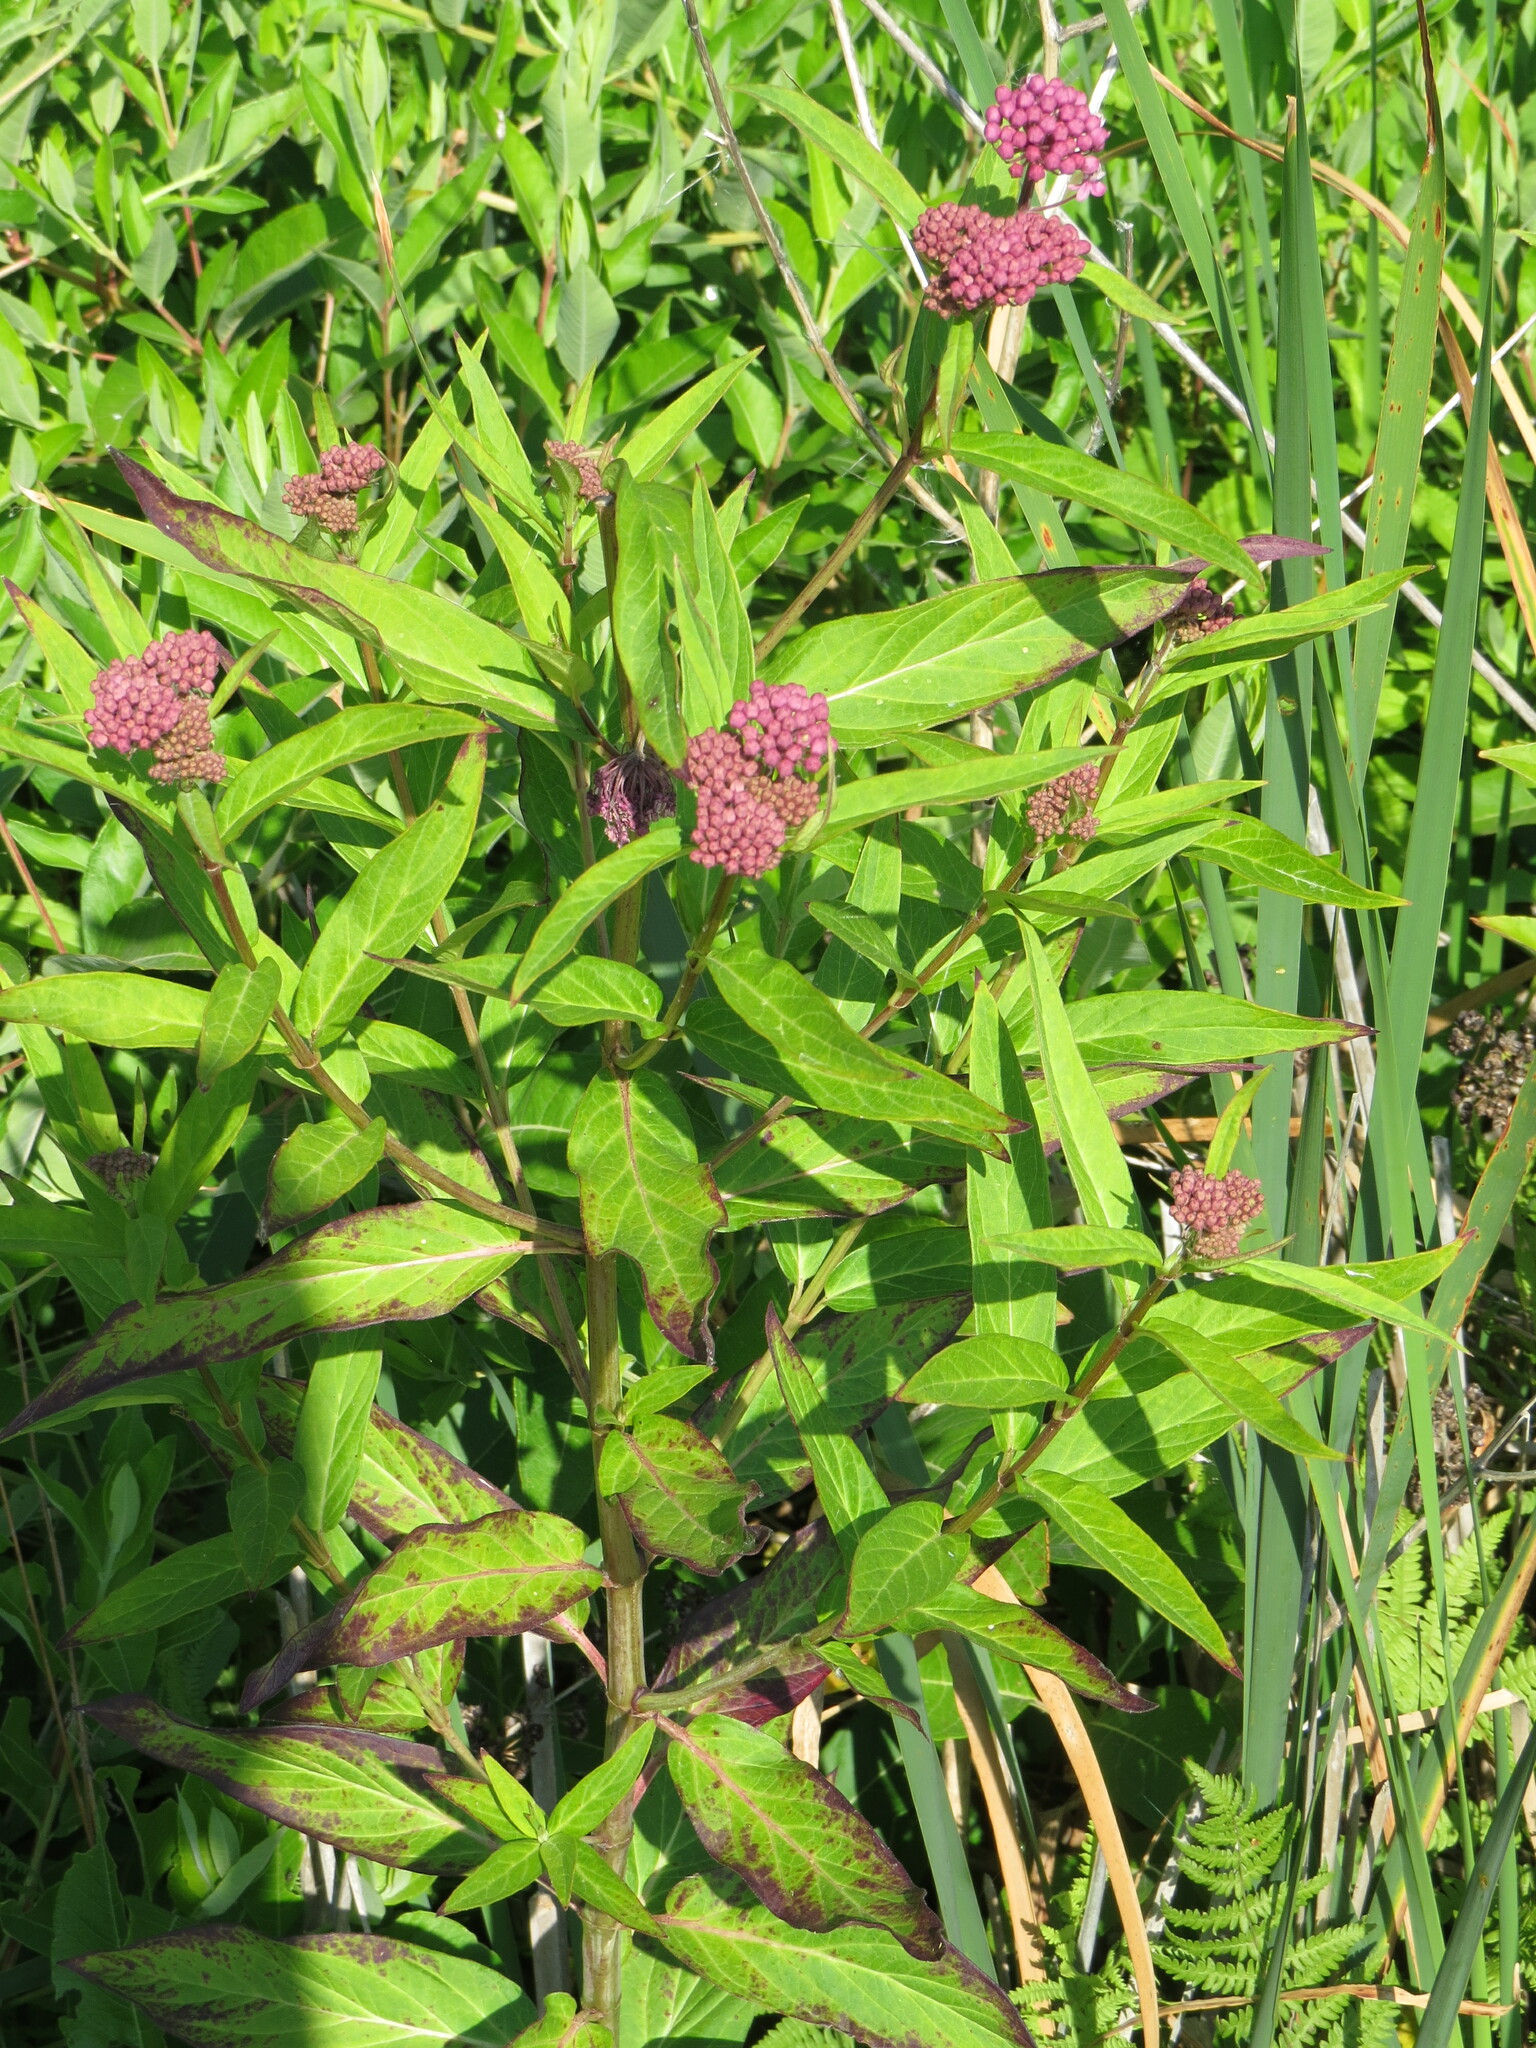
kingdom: Plantae
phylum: Tracheophyta
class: Magnoliopsida
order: Gentianales
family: Apocynaceae
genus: Asclepias
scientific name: Asclepias incarnata
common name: Swamp milkweed
